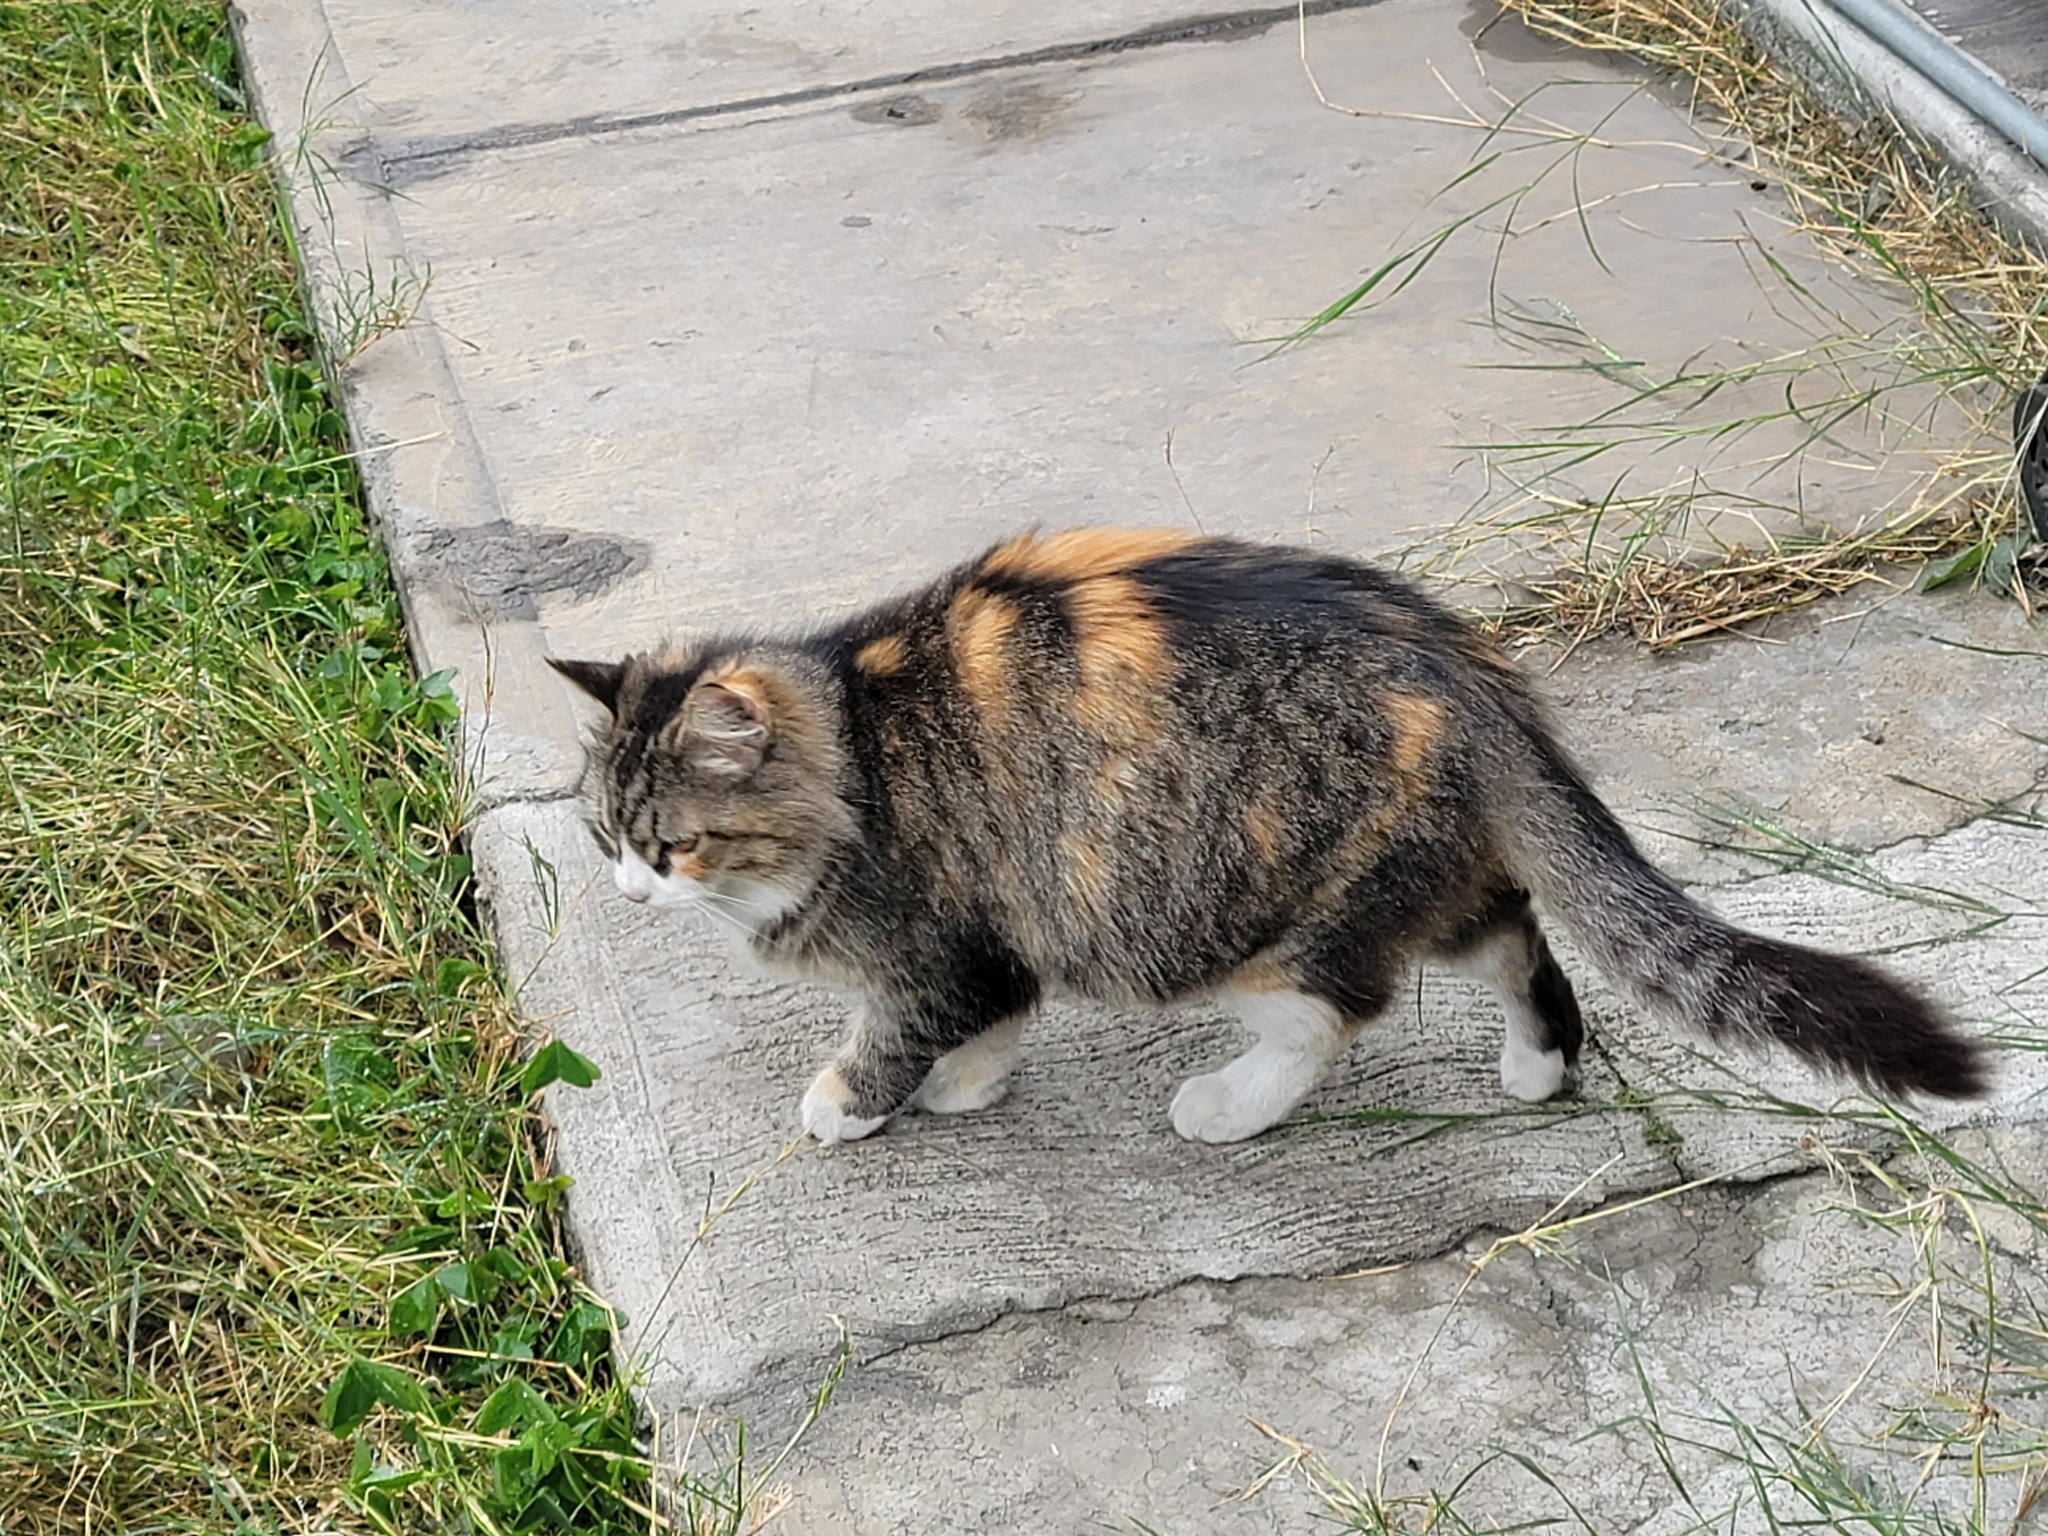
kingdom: Animalia
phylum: Chordata
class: Mammalia
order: Carnivora
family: Felidae
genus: Felis
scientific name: Felis catus
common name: Domestic cat
